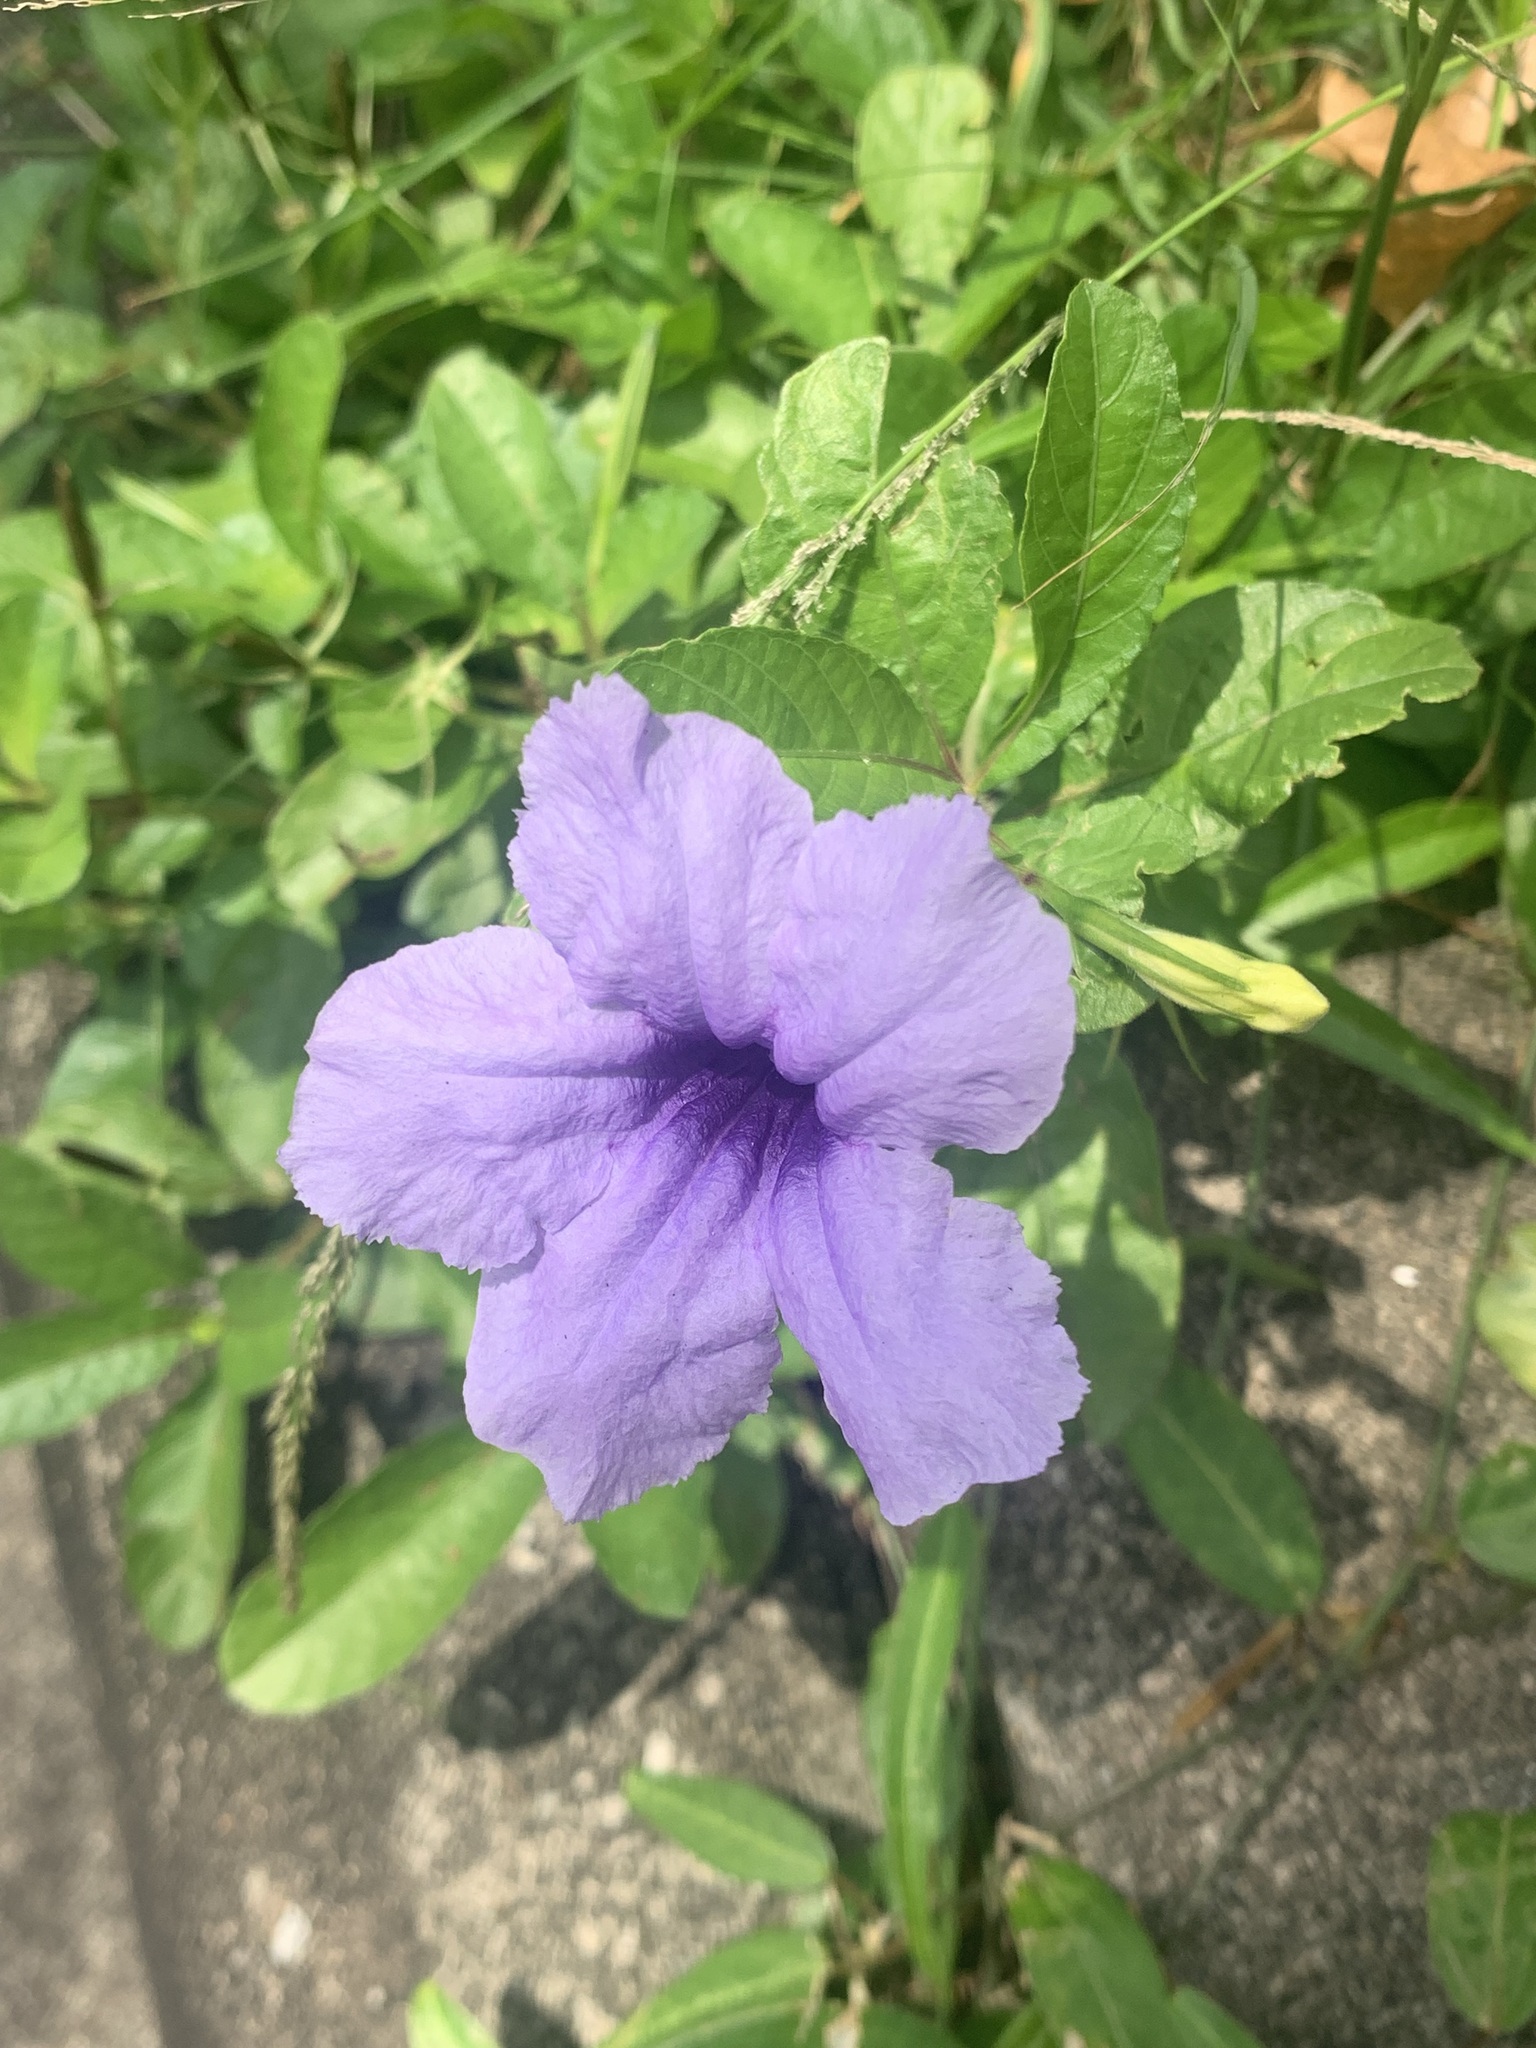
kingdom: Plantae
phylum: Tracheophyta
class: Magnoliopsida
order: Lamiales
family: Acanthaceae
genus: Ruellia
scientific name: Ruellia tuberosa
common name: Devil's bit
